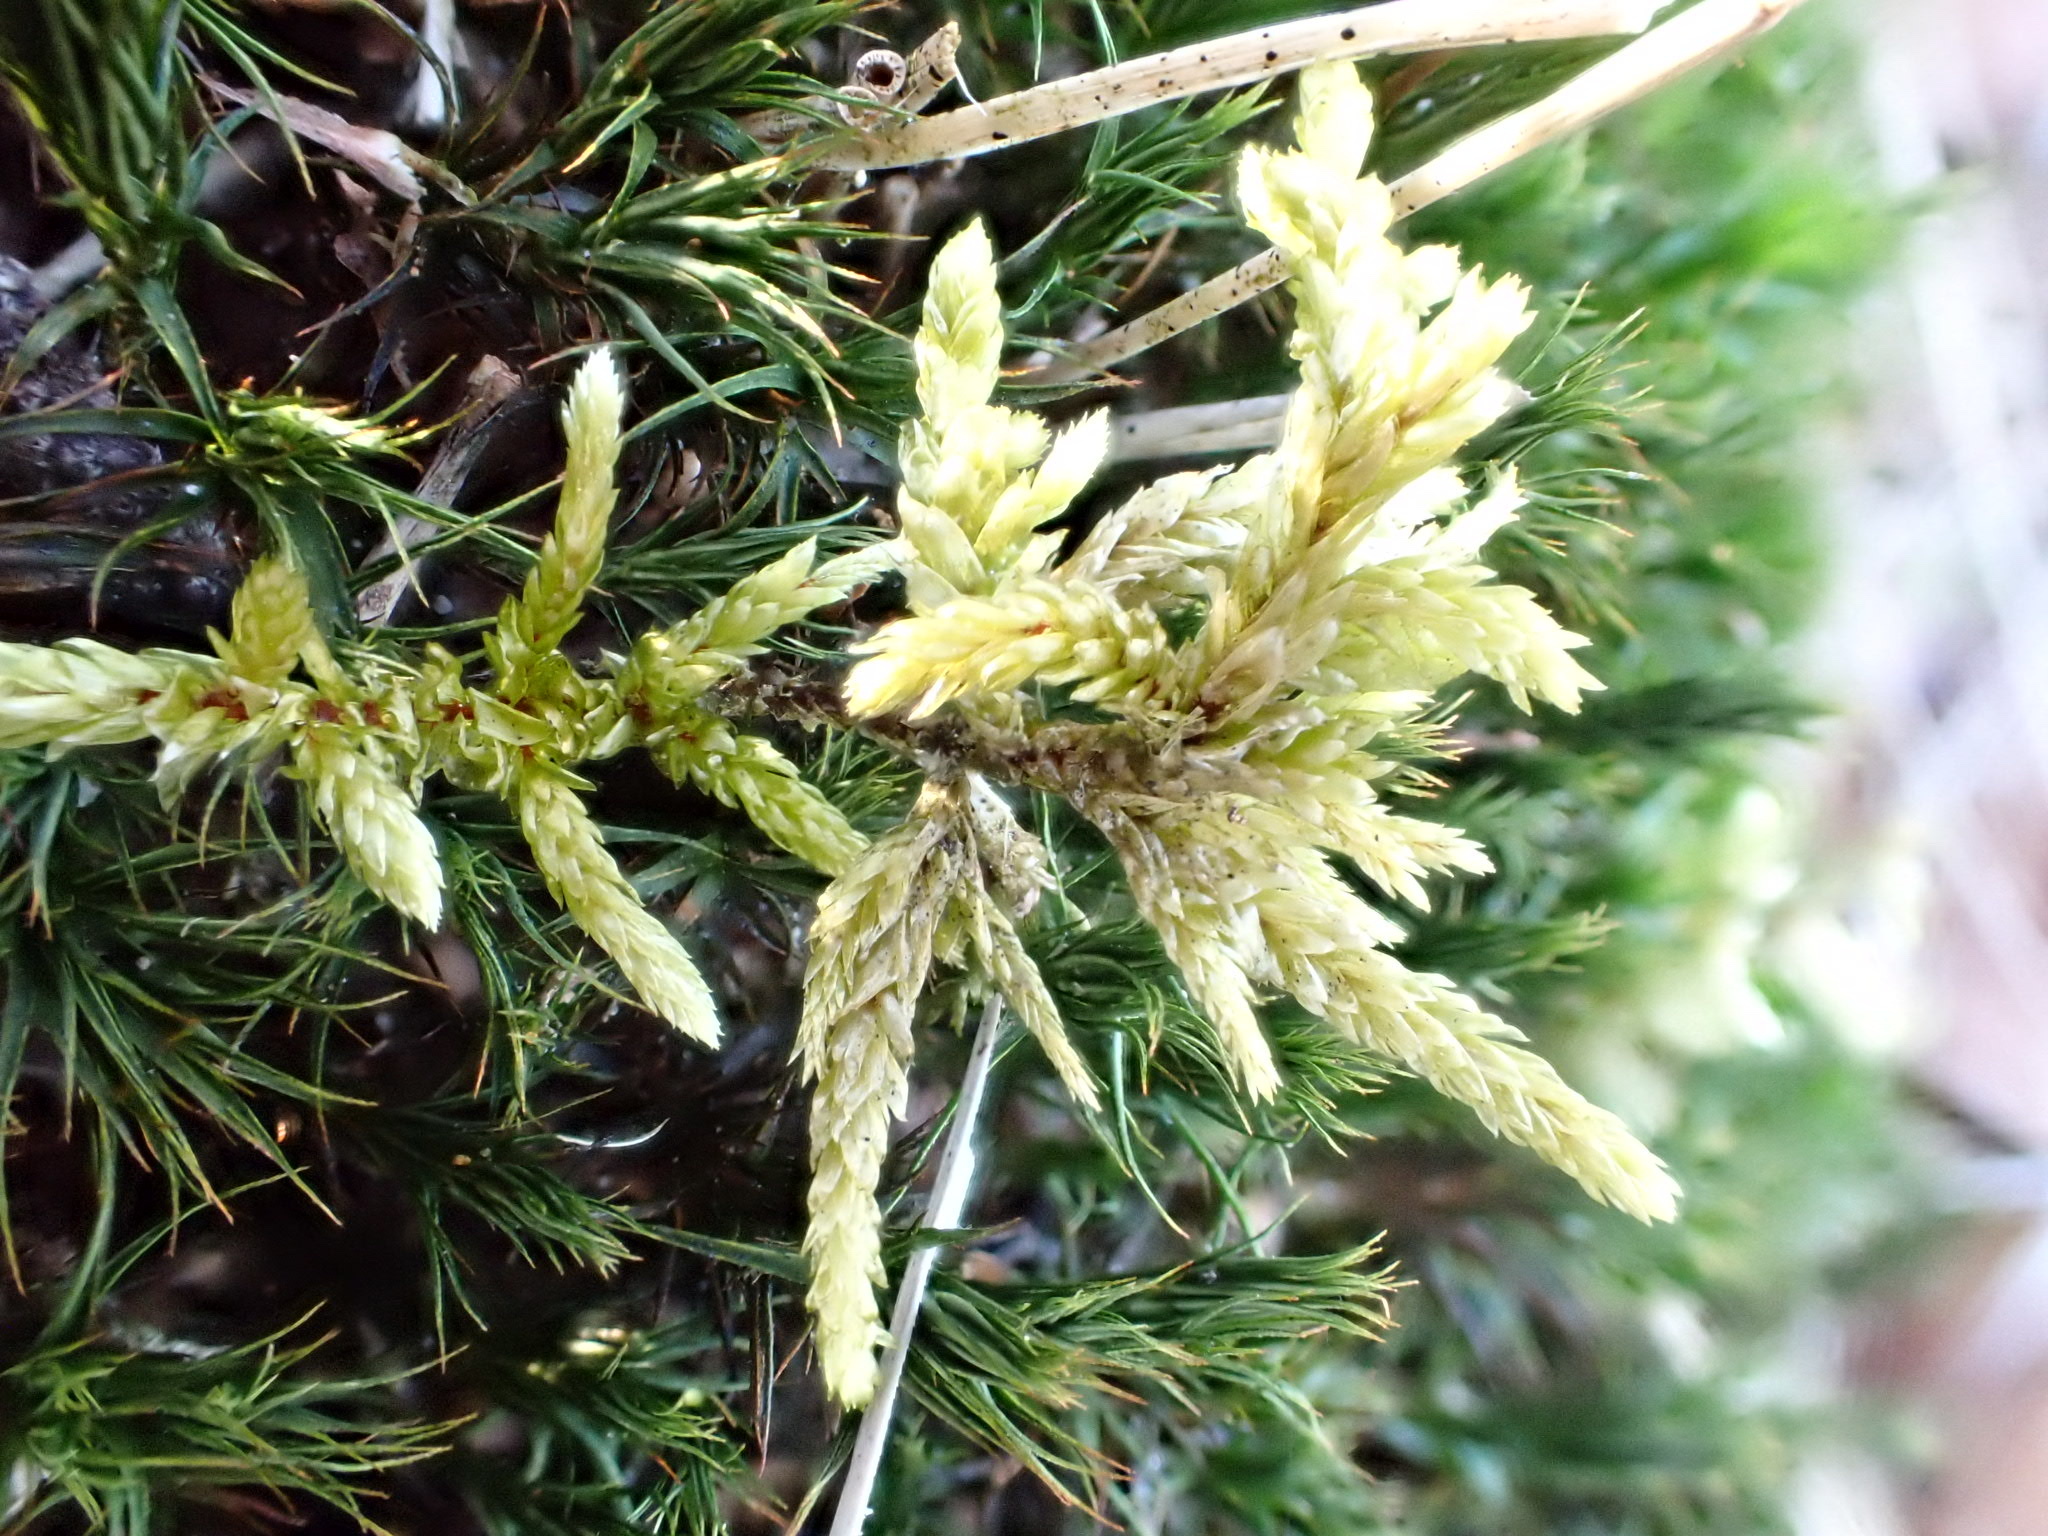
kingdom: Plantae
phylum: Bryophyta
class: Bryopsida
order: Hypnales
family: Hylocomiaceae
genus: Pleurozium
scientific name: Pleurozium schreberi
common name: Red-stemmed feather moss
